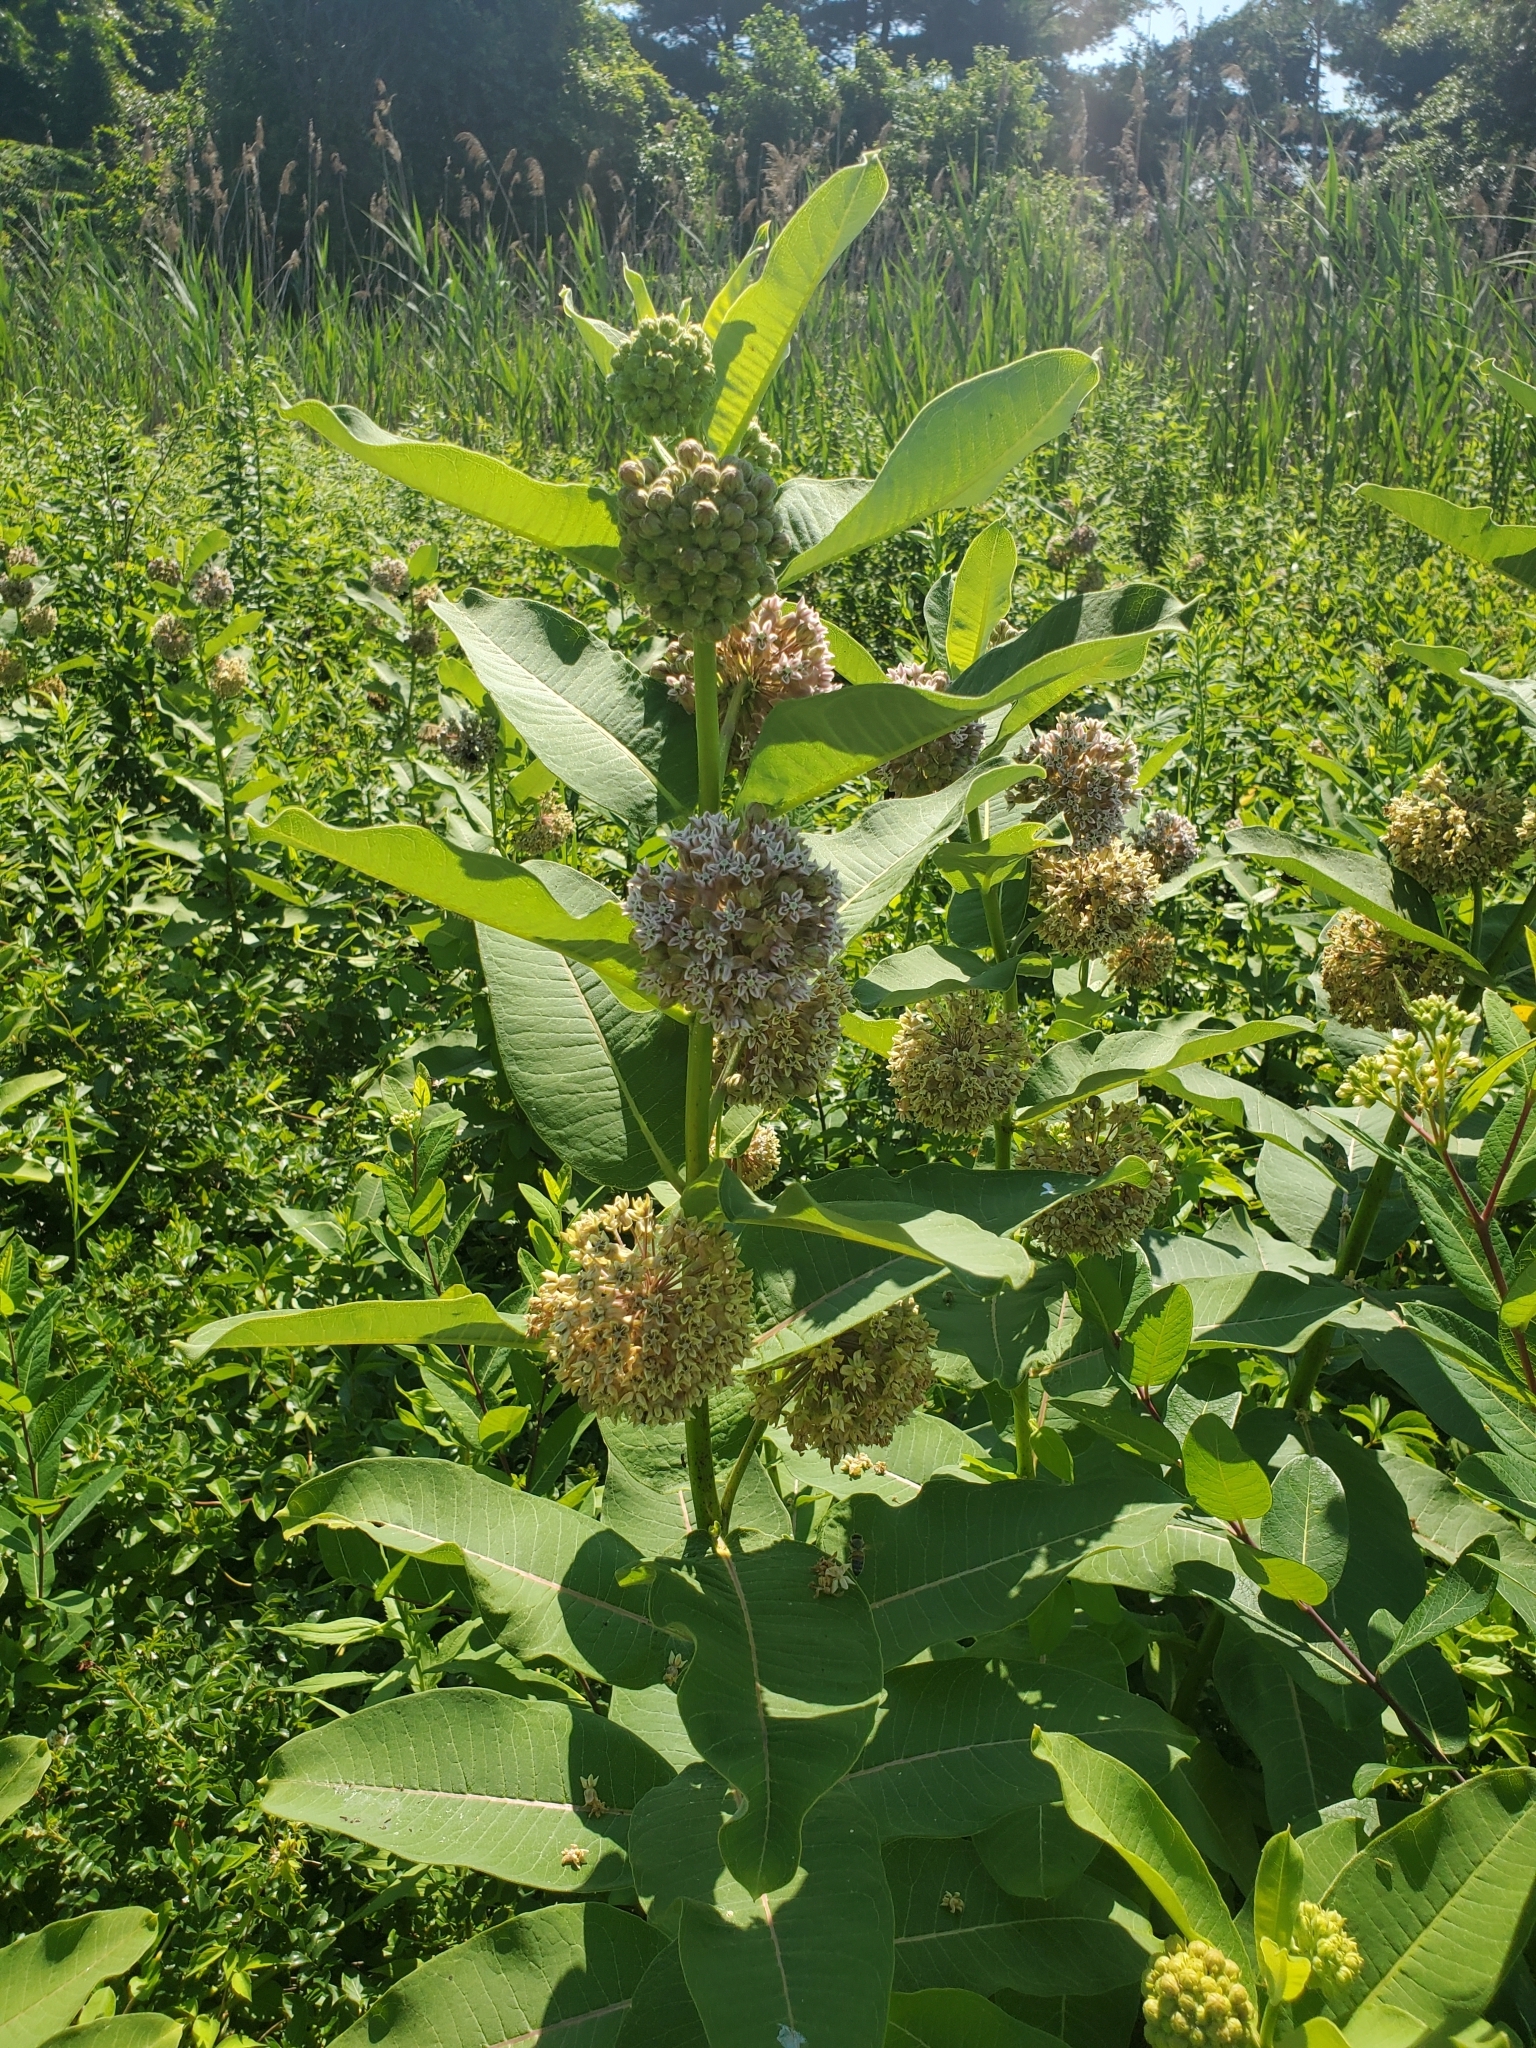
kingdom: Plantae
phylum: Tracheophyta
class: Magnoliopsida
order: Gentianales
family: Apocynaceae
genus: Asclepias
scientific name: Asclepias syriaca
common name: Common milkweed
